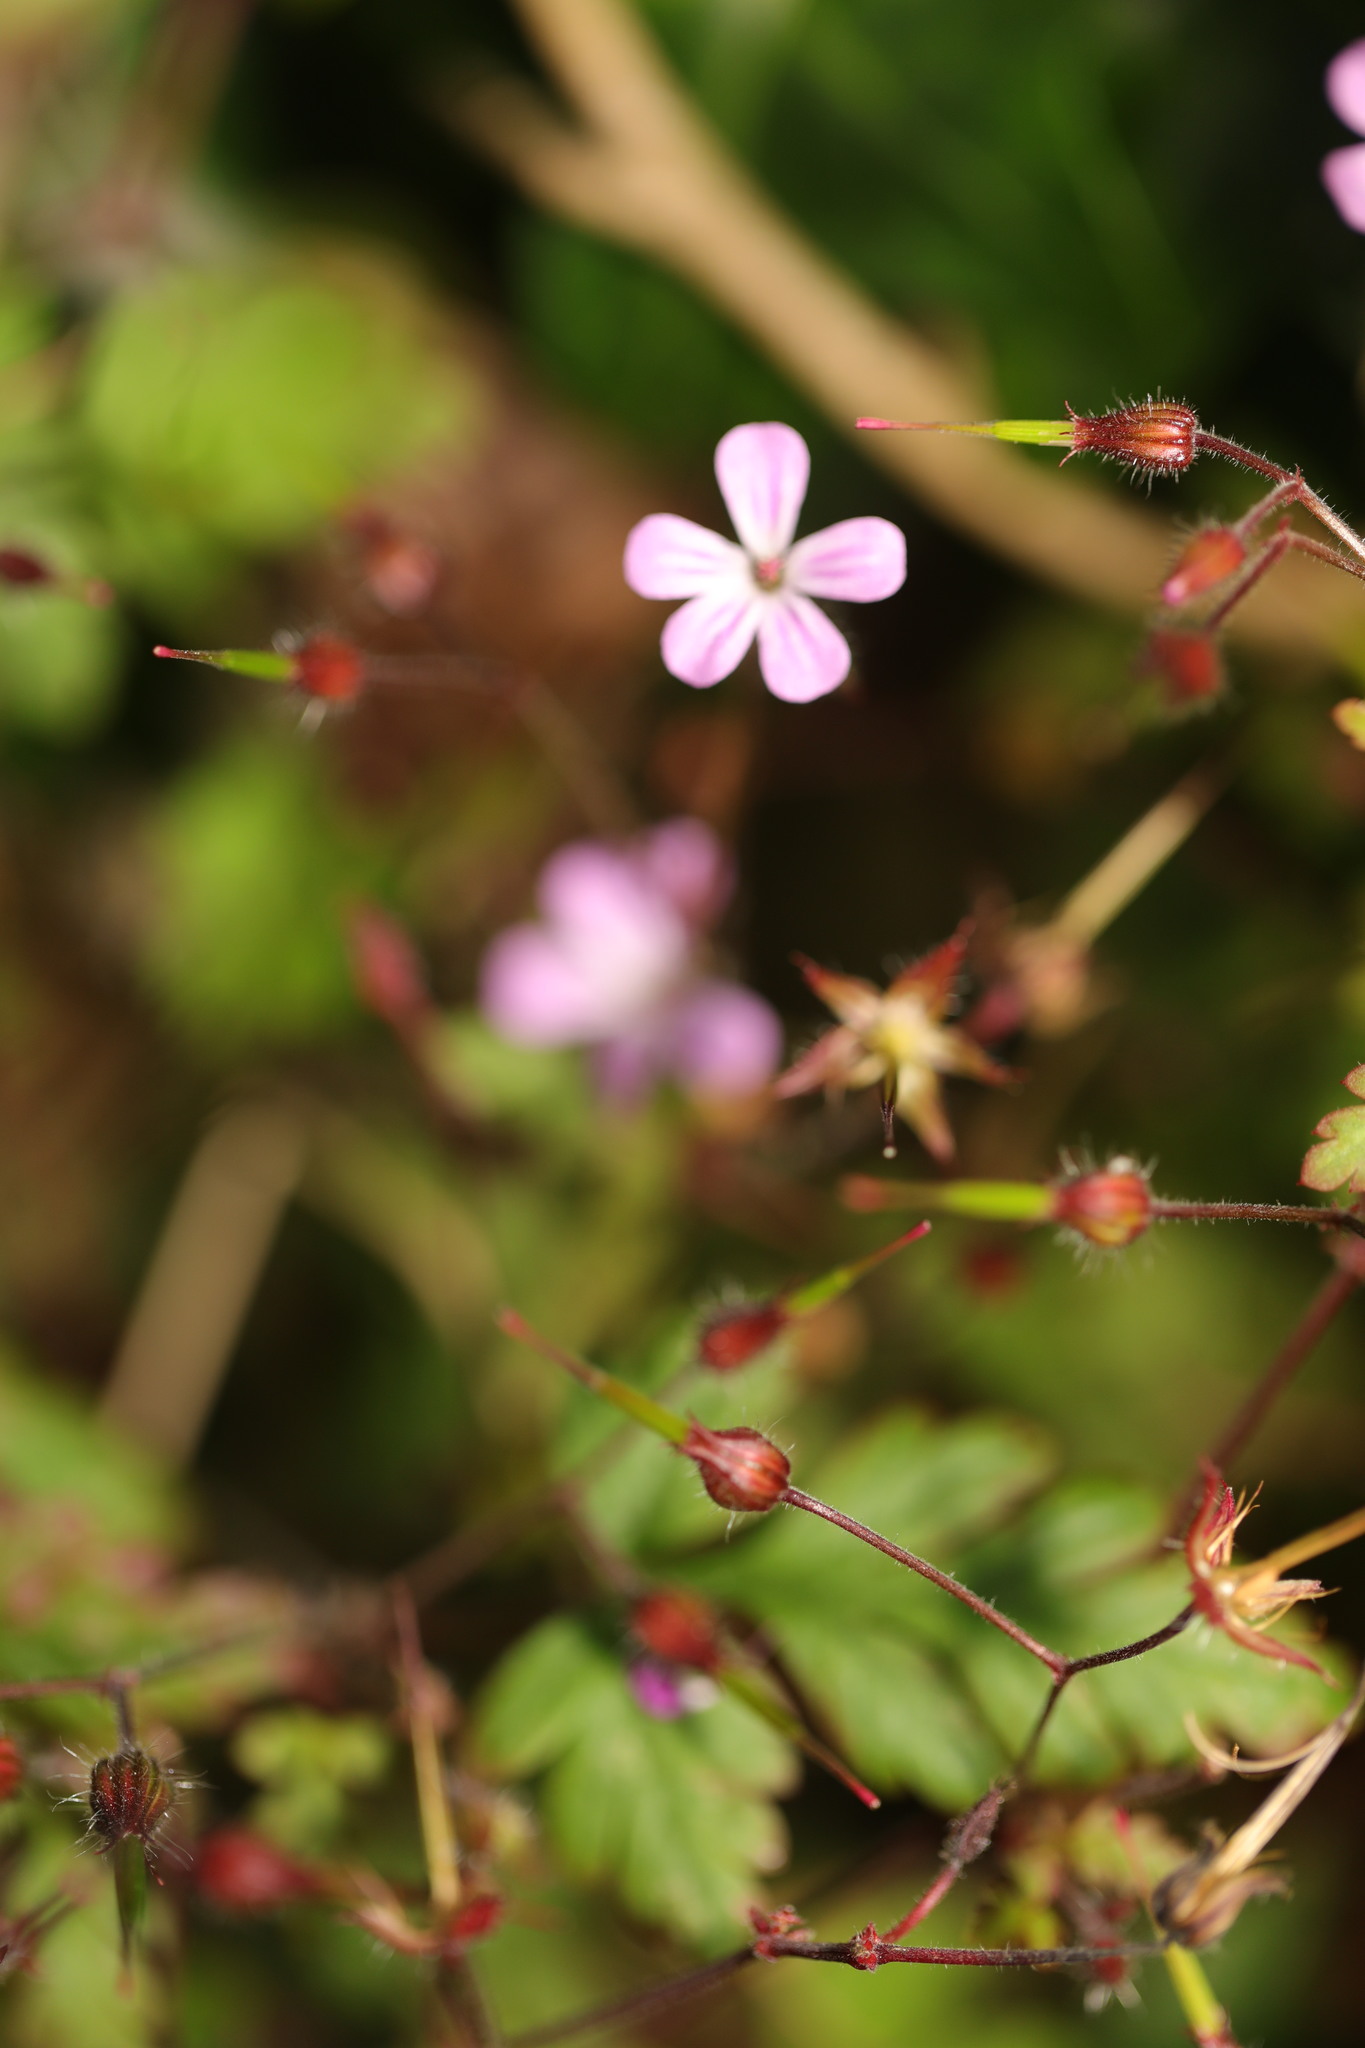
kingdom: Plantae
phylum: Tracheophyta
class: Magnoliopsida
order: Geraniales
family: Geraniaceae
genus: Geranium
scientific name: Geranium robertianum
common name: Herb-robert
